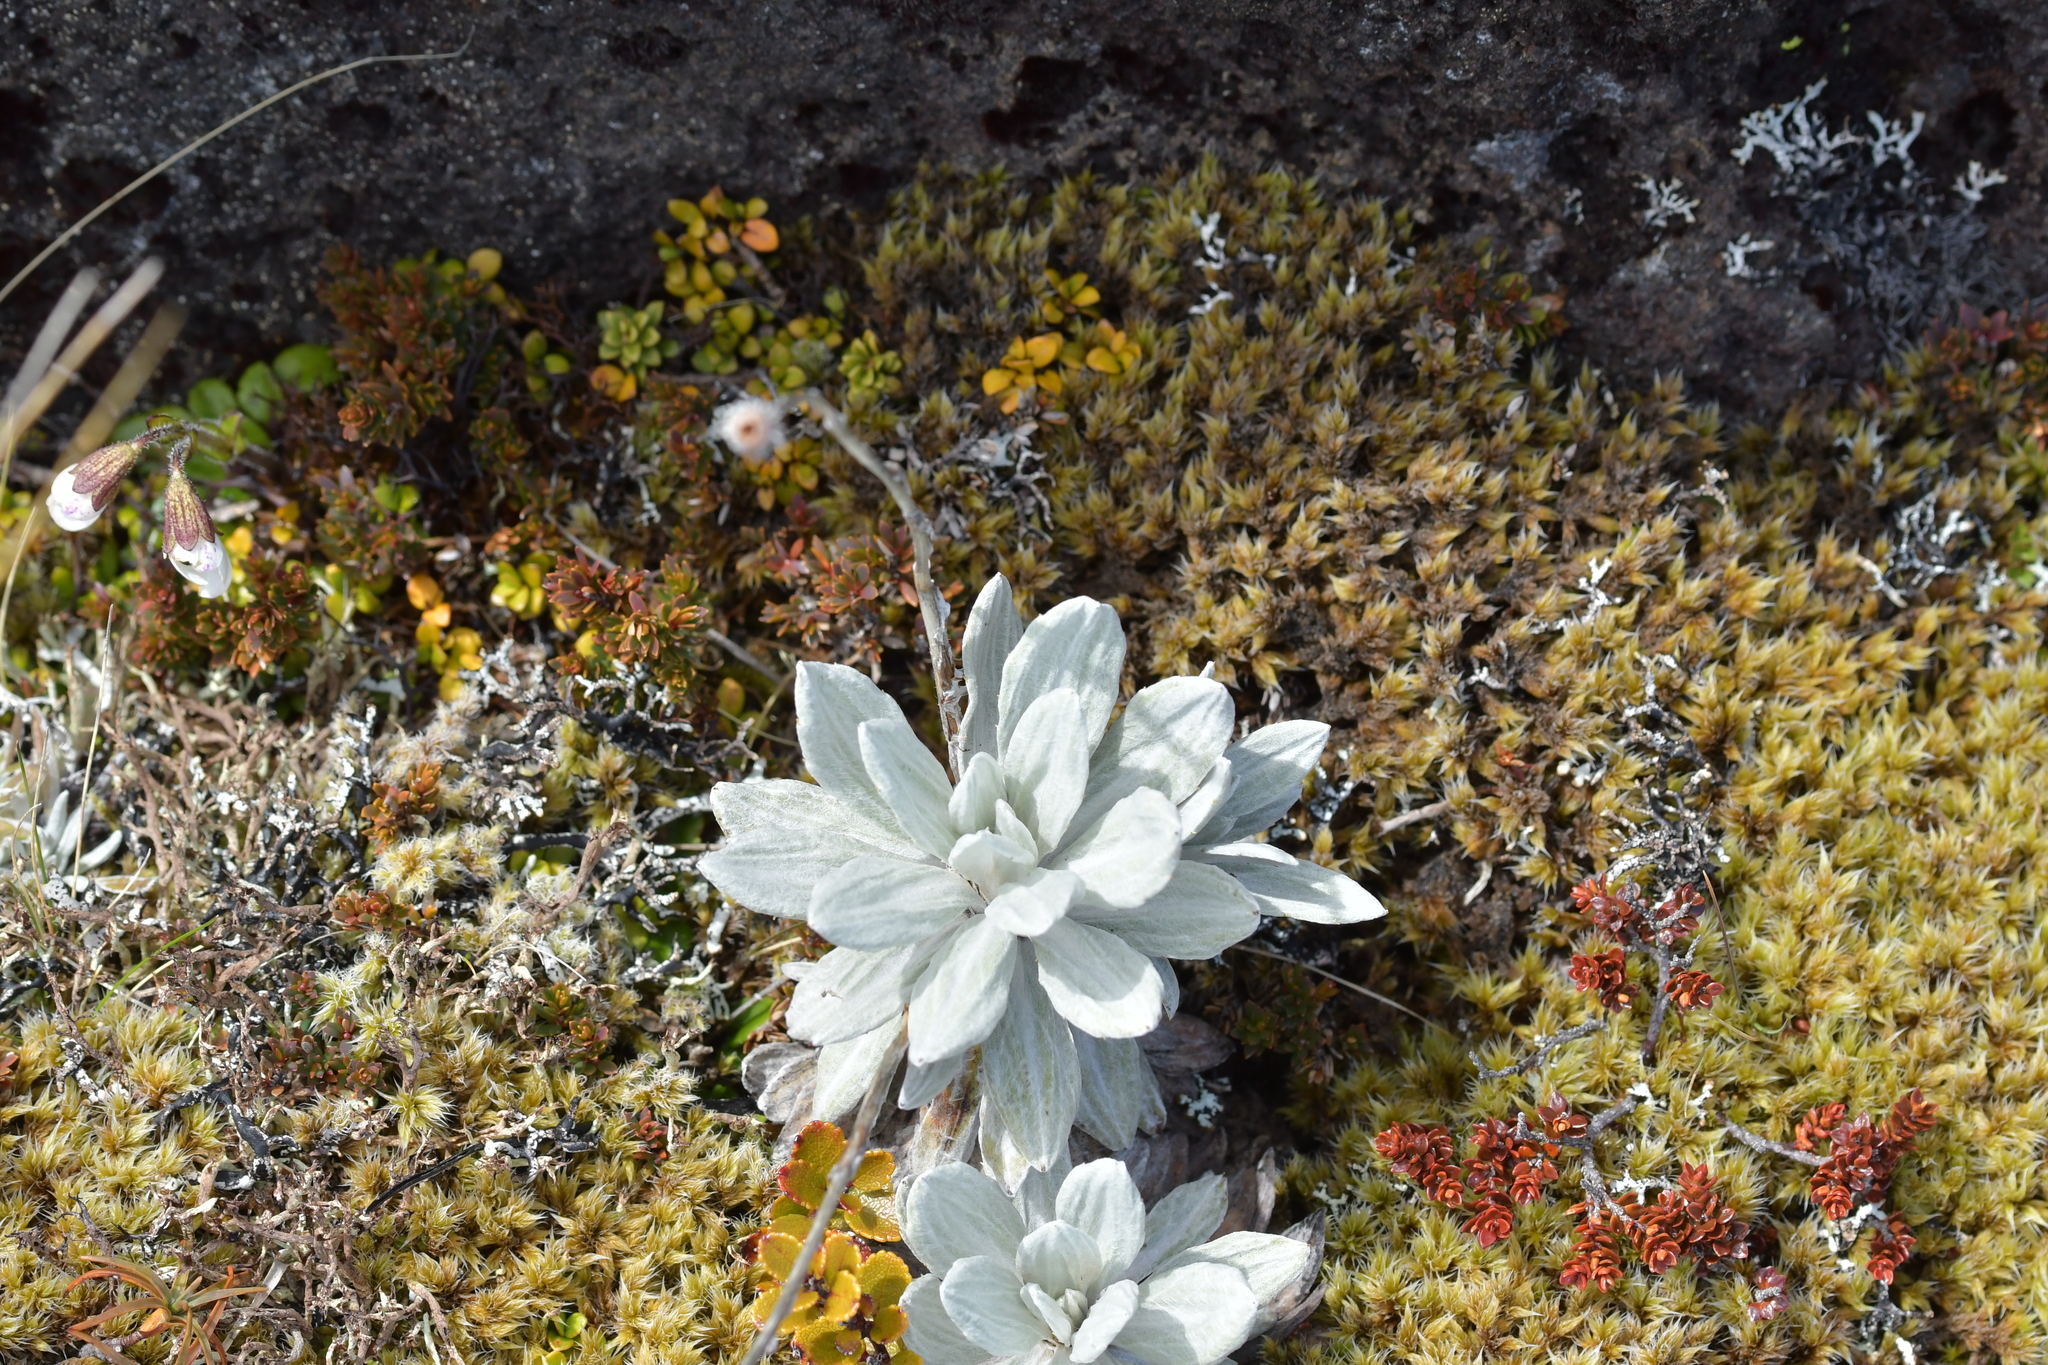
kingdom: Plantae
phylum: Tracheophyta
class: Magnoliopsida
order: Asterales
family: Asteraceae
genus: Celmisia
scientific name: Celmisia incana
